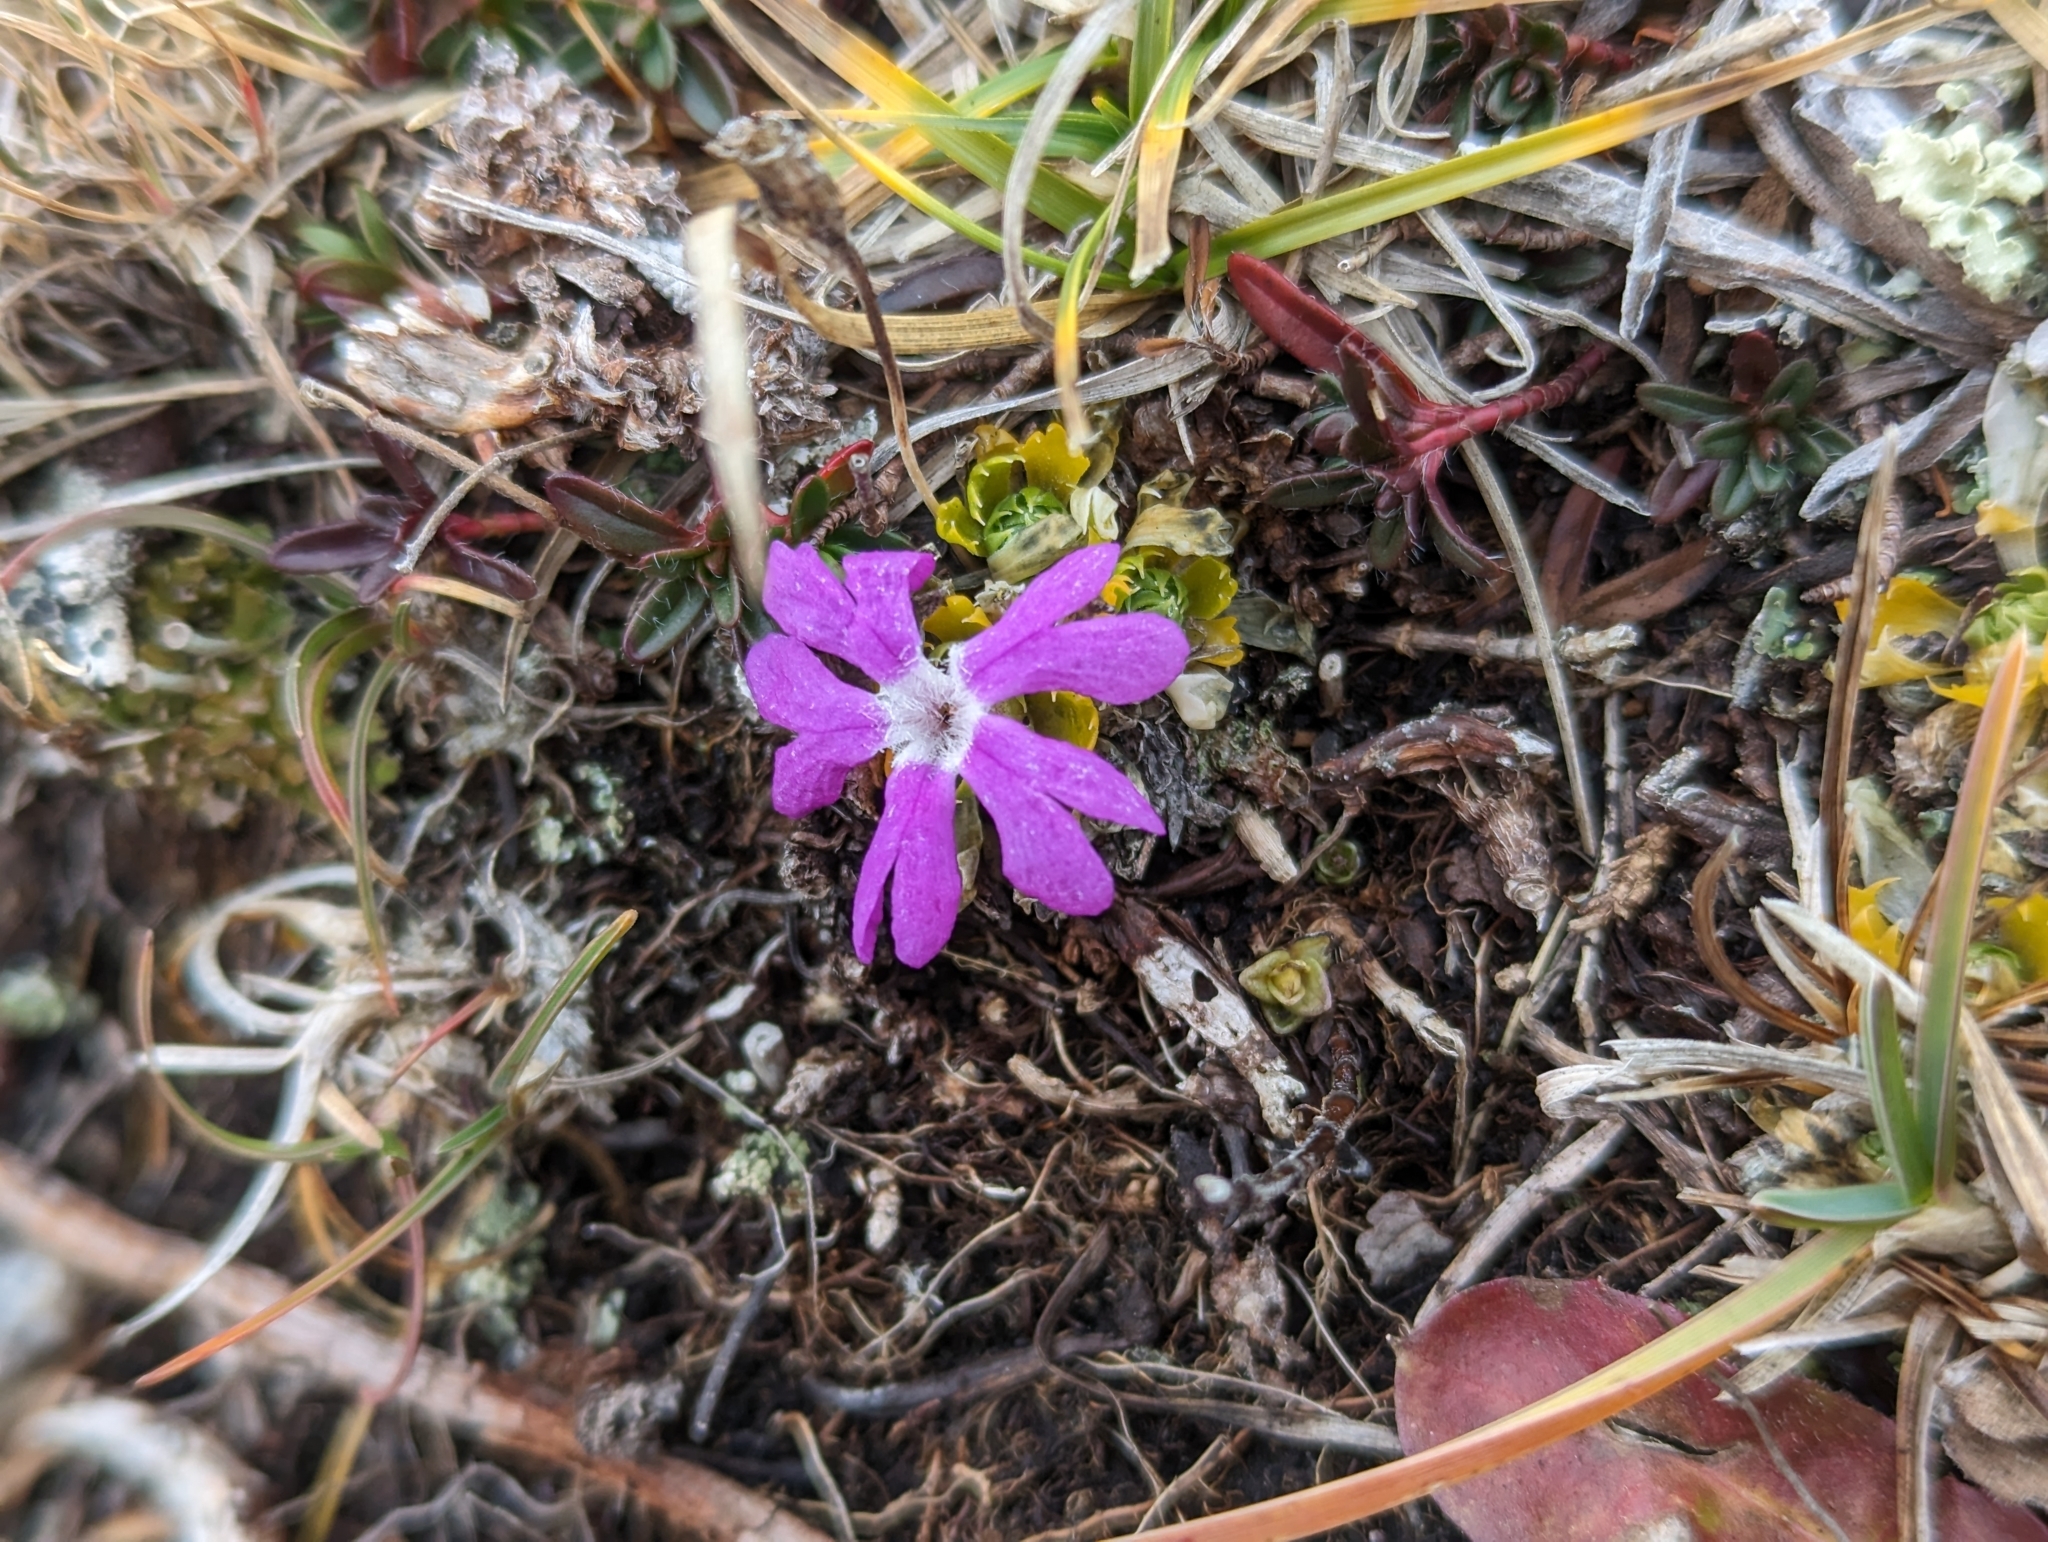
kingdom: Plantae
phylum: Tracheophyta
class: Magnoliopsida
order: Ericales
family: Primulaceae
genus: Primula
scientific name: Primula minima
